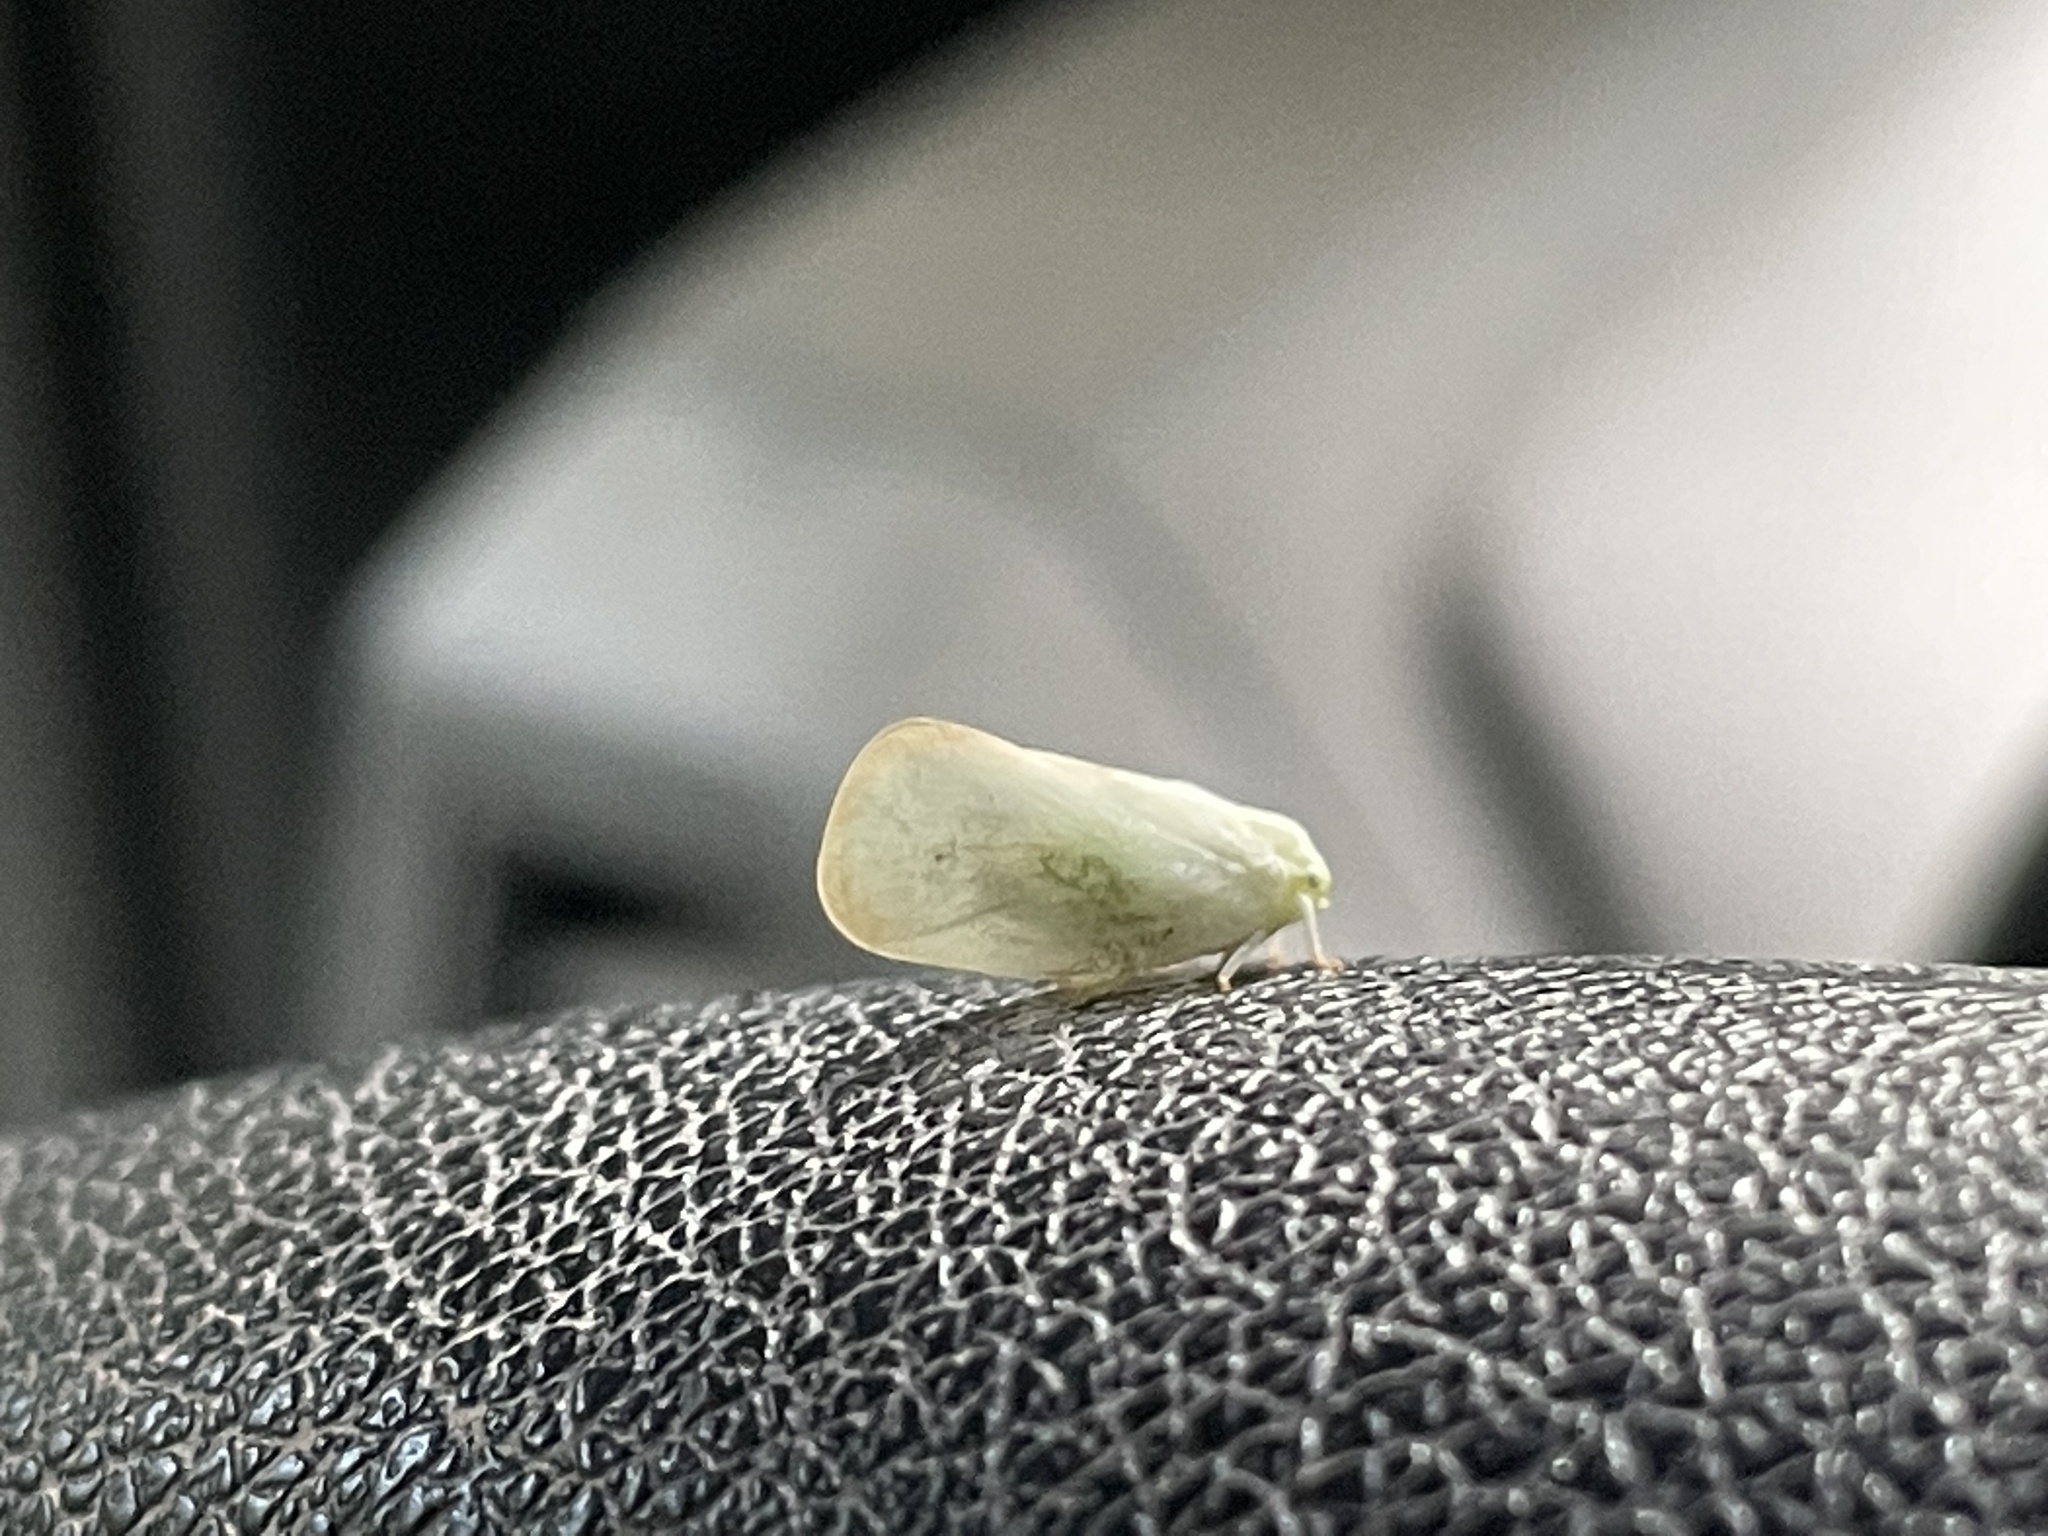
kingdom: Animalia
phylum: Arthropoda
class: Insecta
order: Hemiptera
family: Flatidae
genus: Ormenoides
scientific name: Ormenoides venusta
